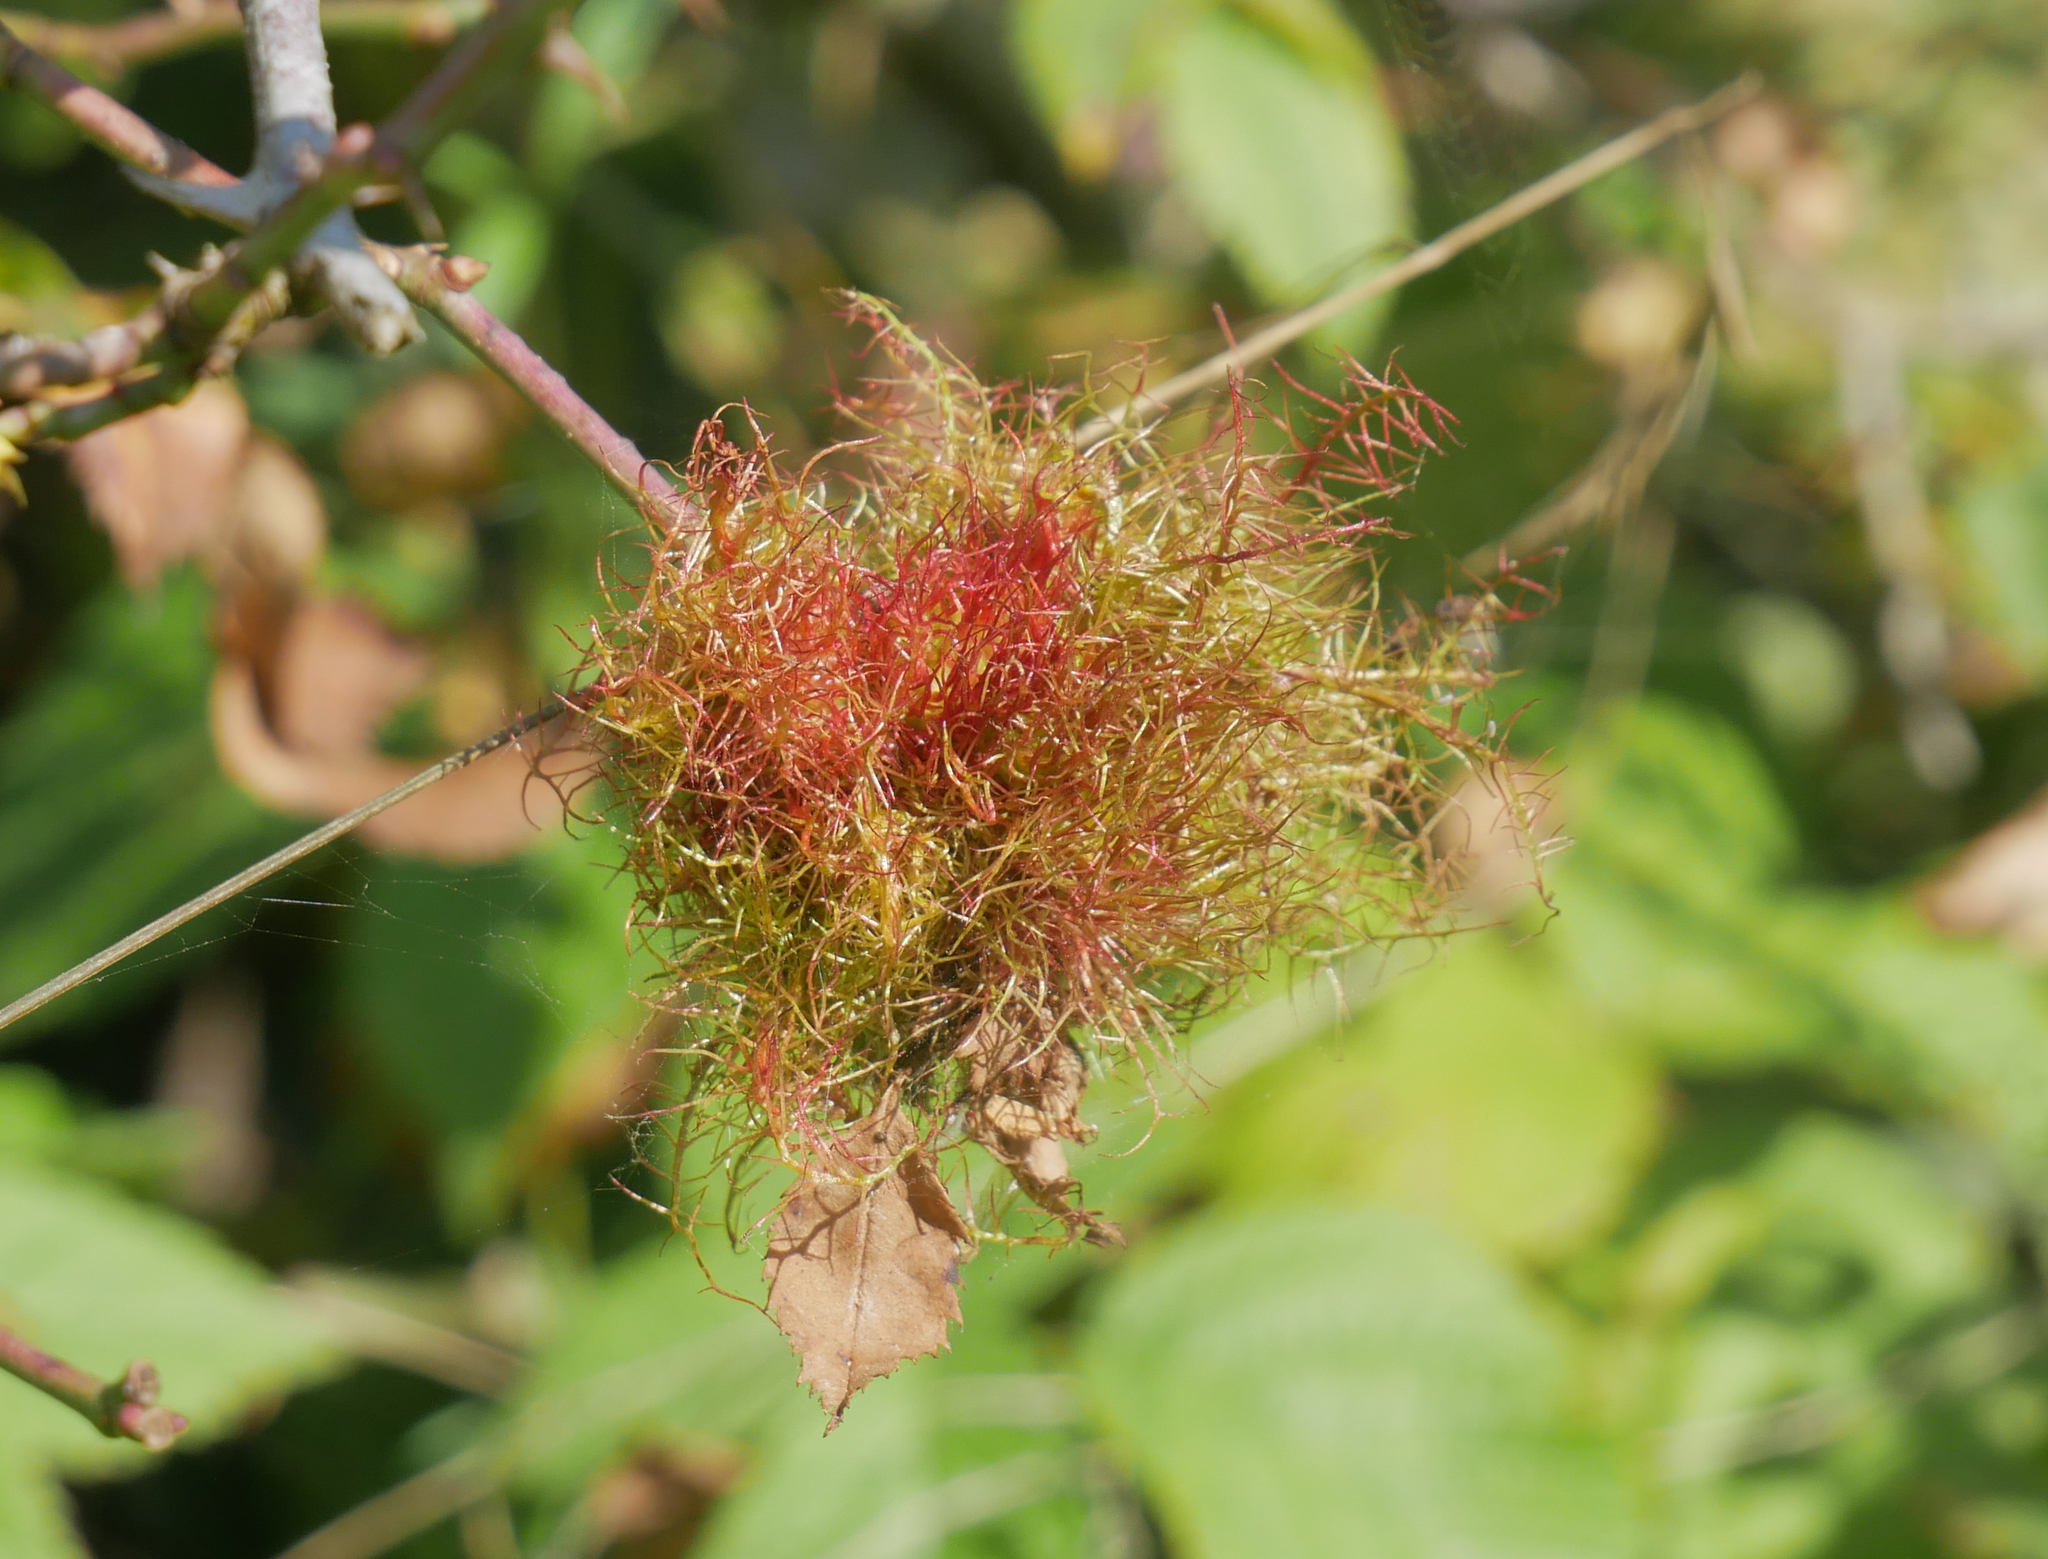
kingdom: Animalia
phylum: Arthropoda
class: Insecta
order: Hymenoptera
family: Cynipidae
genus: Diplolepis
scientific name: Diplolepis rosae
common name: Bedeguar gall
